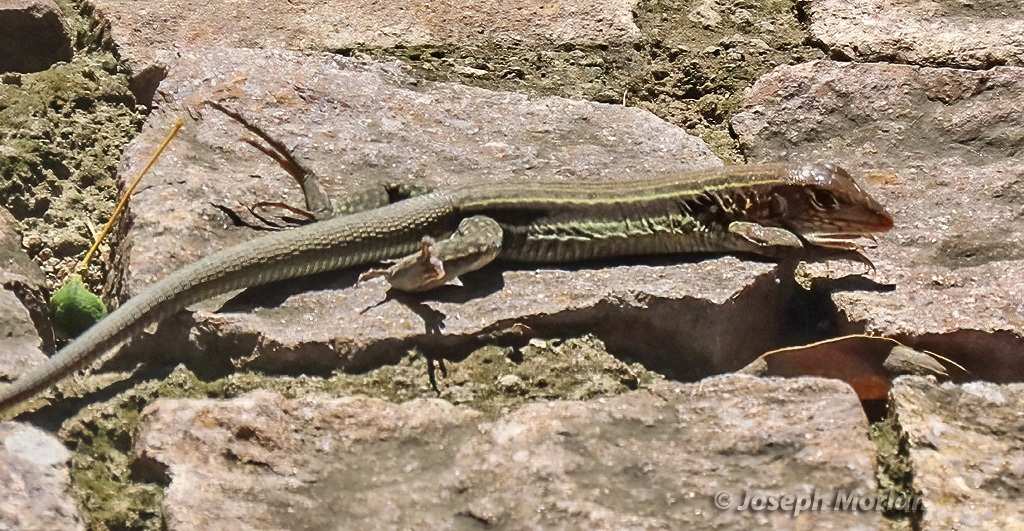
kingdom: Animalia
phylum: Chordata
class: Squamata
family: Teiidae
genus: Pholidoscelis
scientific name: Pholidoscelis plei
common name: Anguilla bank ameiva
